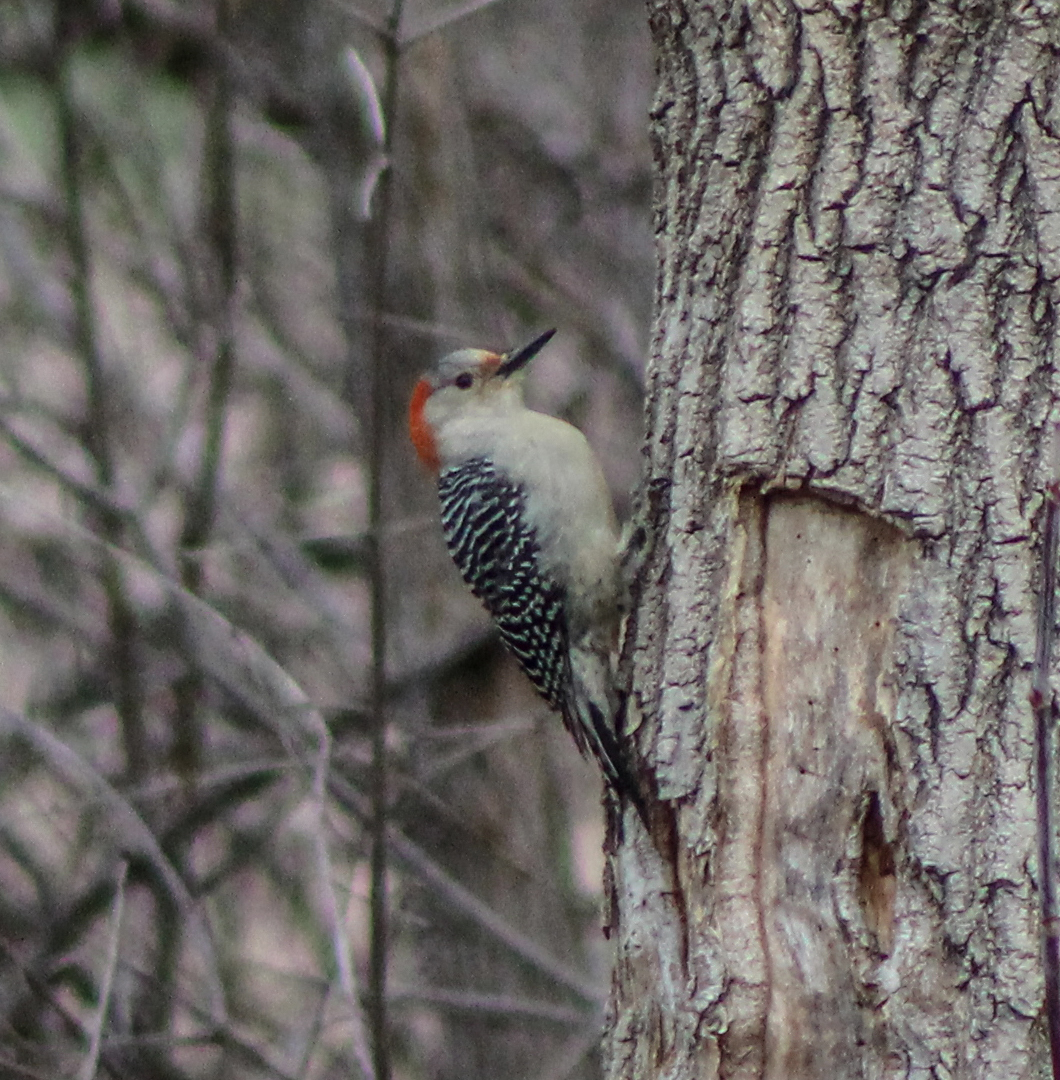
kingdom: Animalia
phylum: Chordata
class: Aves
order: Piciformes
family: Picidae
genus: Melanerpes
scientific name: Melanerpes carolinus
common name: Red-bellied woodpecker
